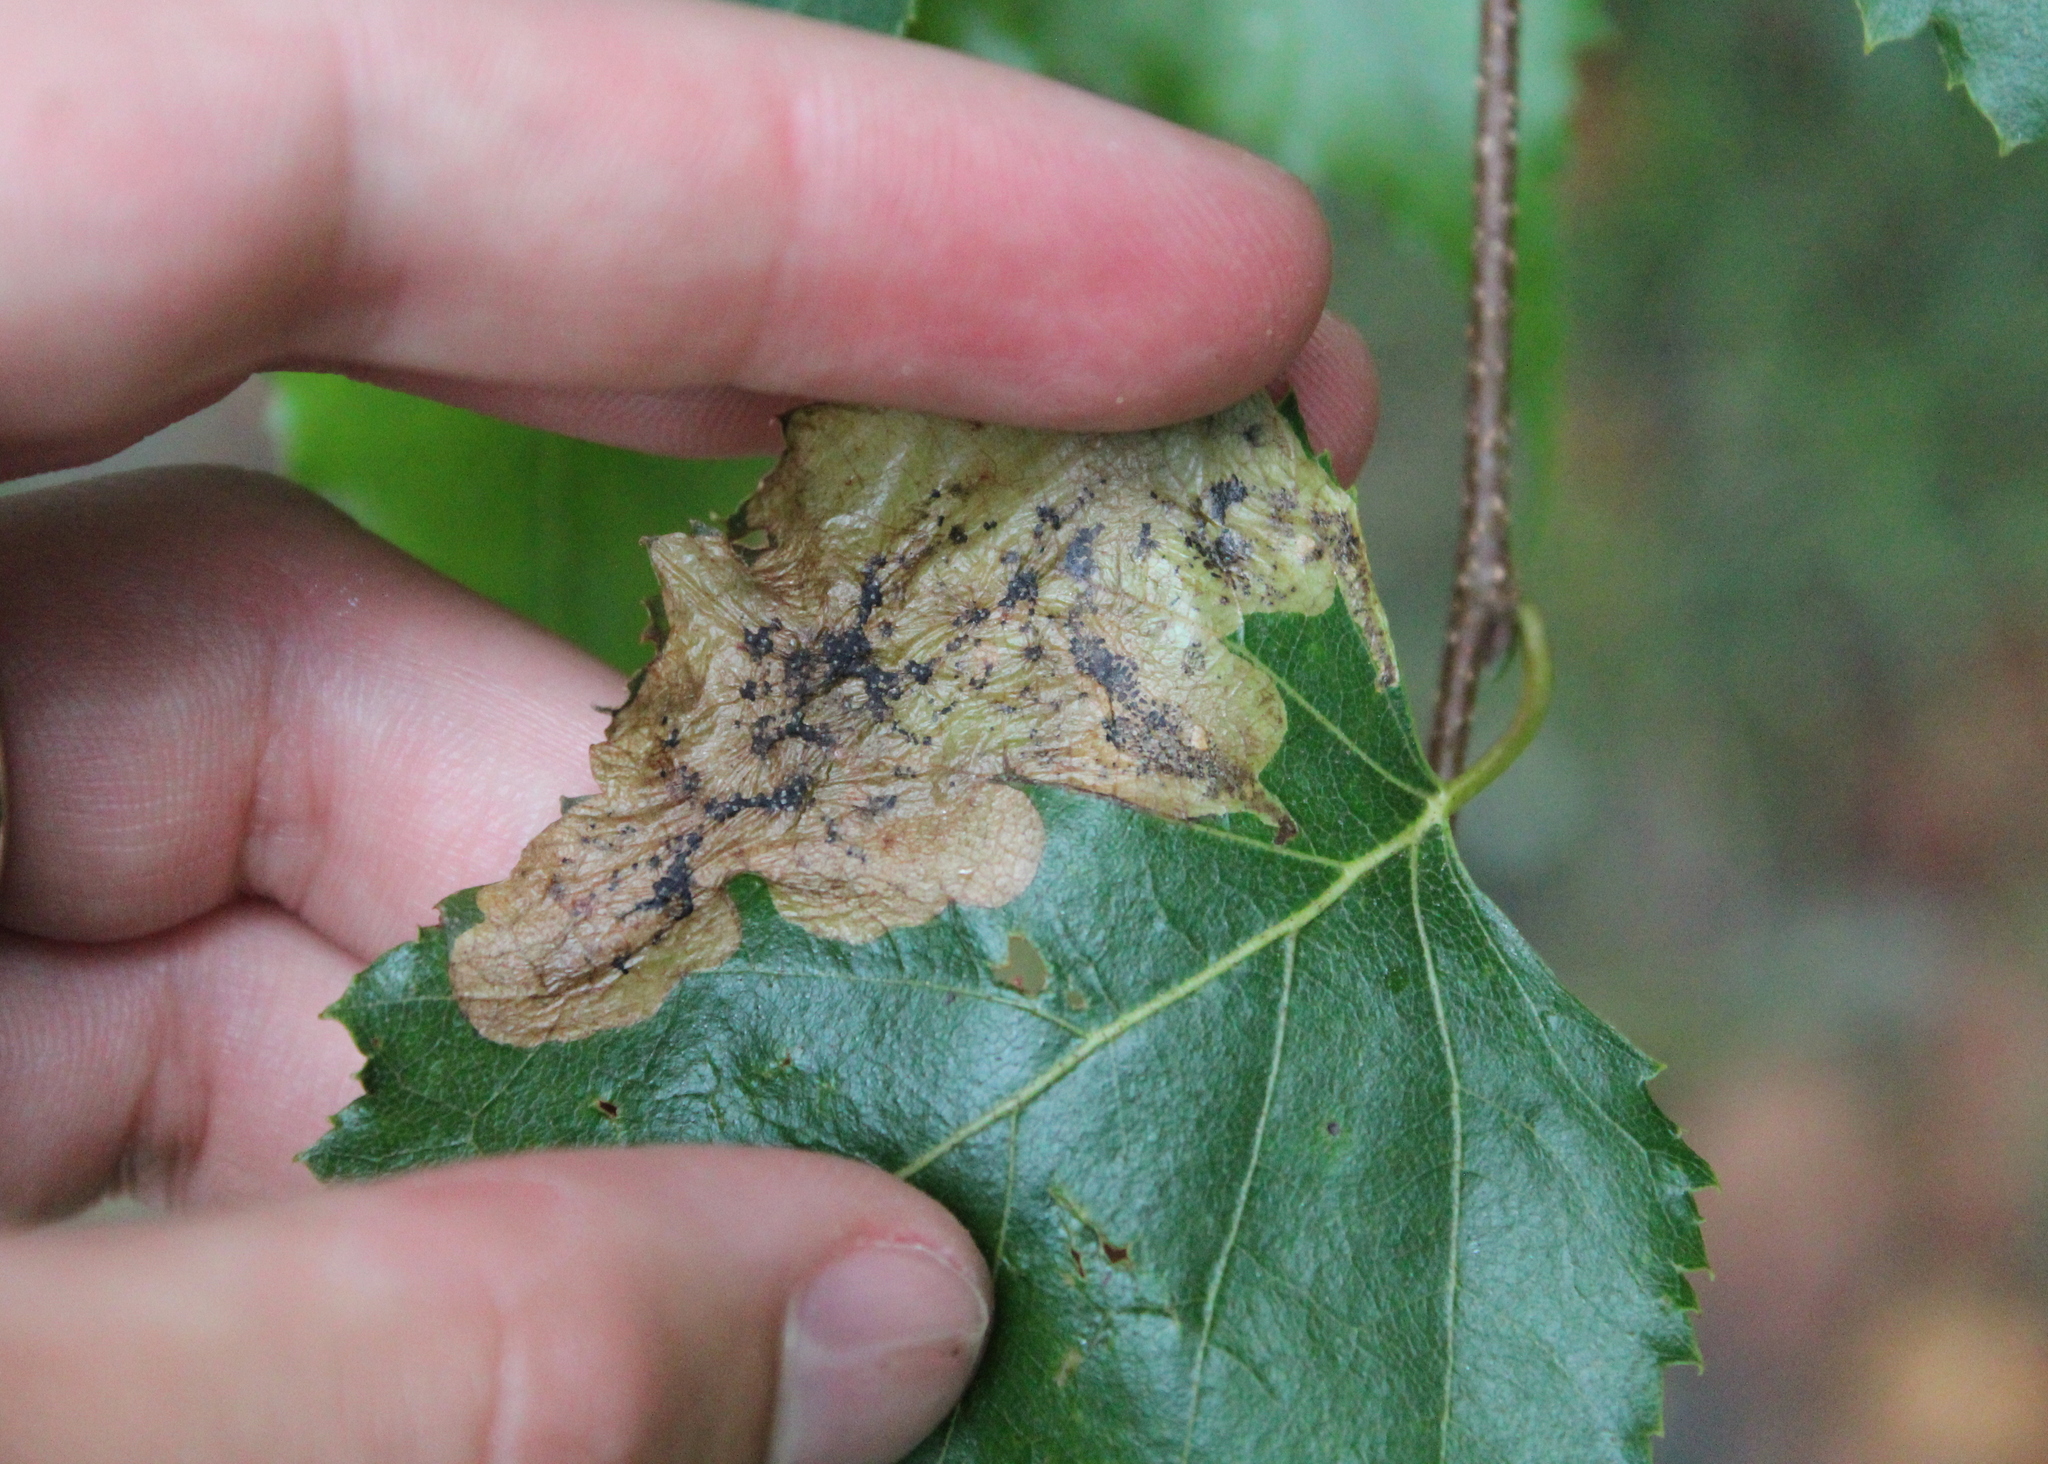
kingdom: Animalia
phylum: Arthropoda
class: Insecta
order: Hymenoptera
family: Tenthredinidae
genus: Profenusa
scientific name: Profenusa thomsoni
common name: Amber-marked birch leafminer
